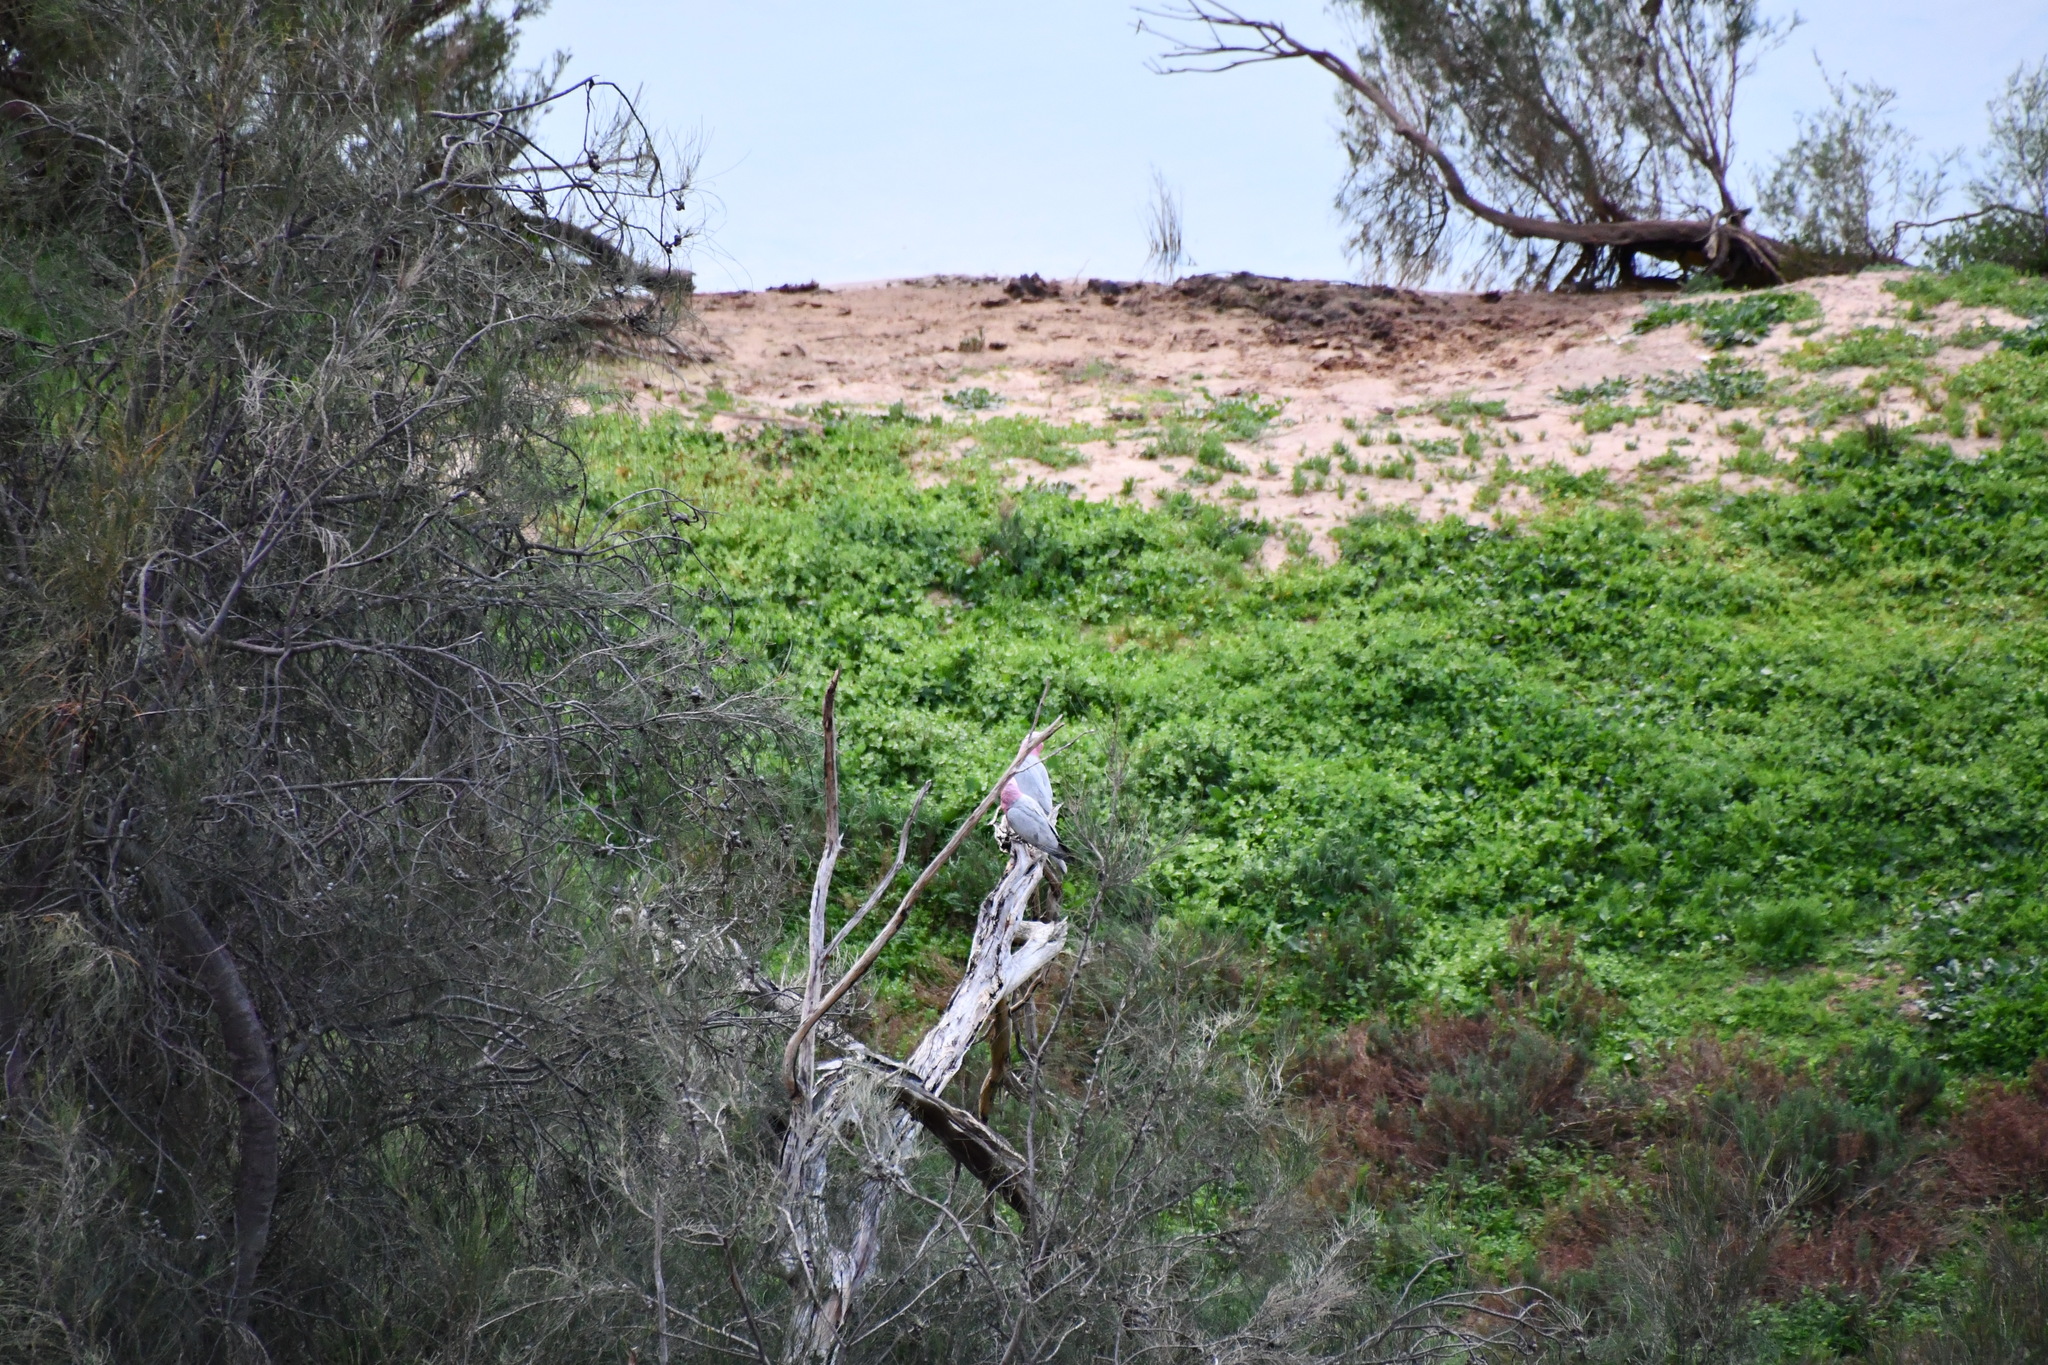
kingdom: Animalia
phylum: Chordata
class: Aves
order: Psittaciformes
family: Psittacidae
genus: Eolophus
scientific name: Eolophus roseicapilla
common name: Galah
